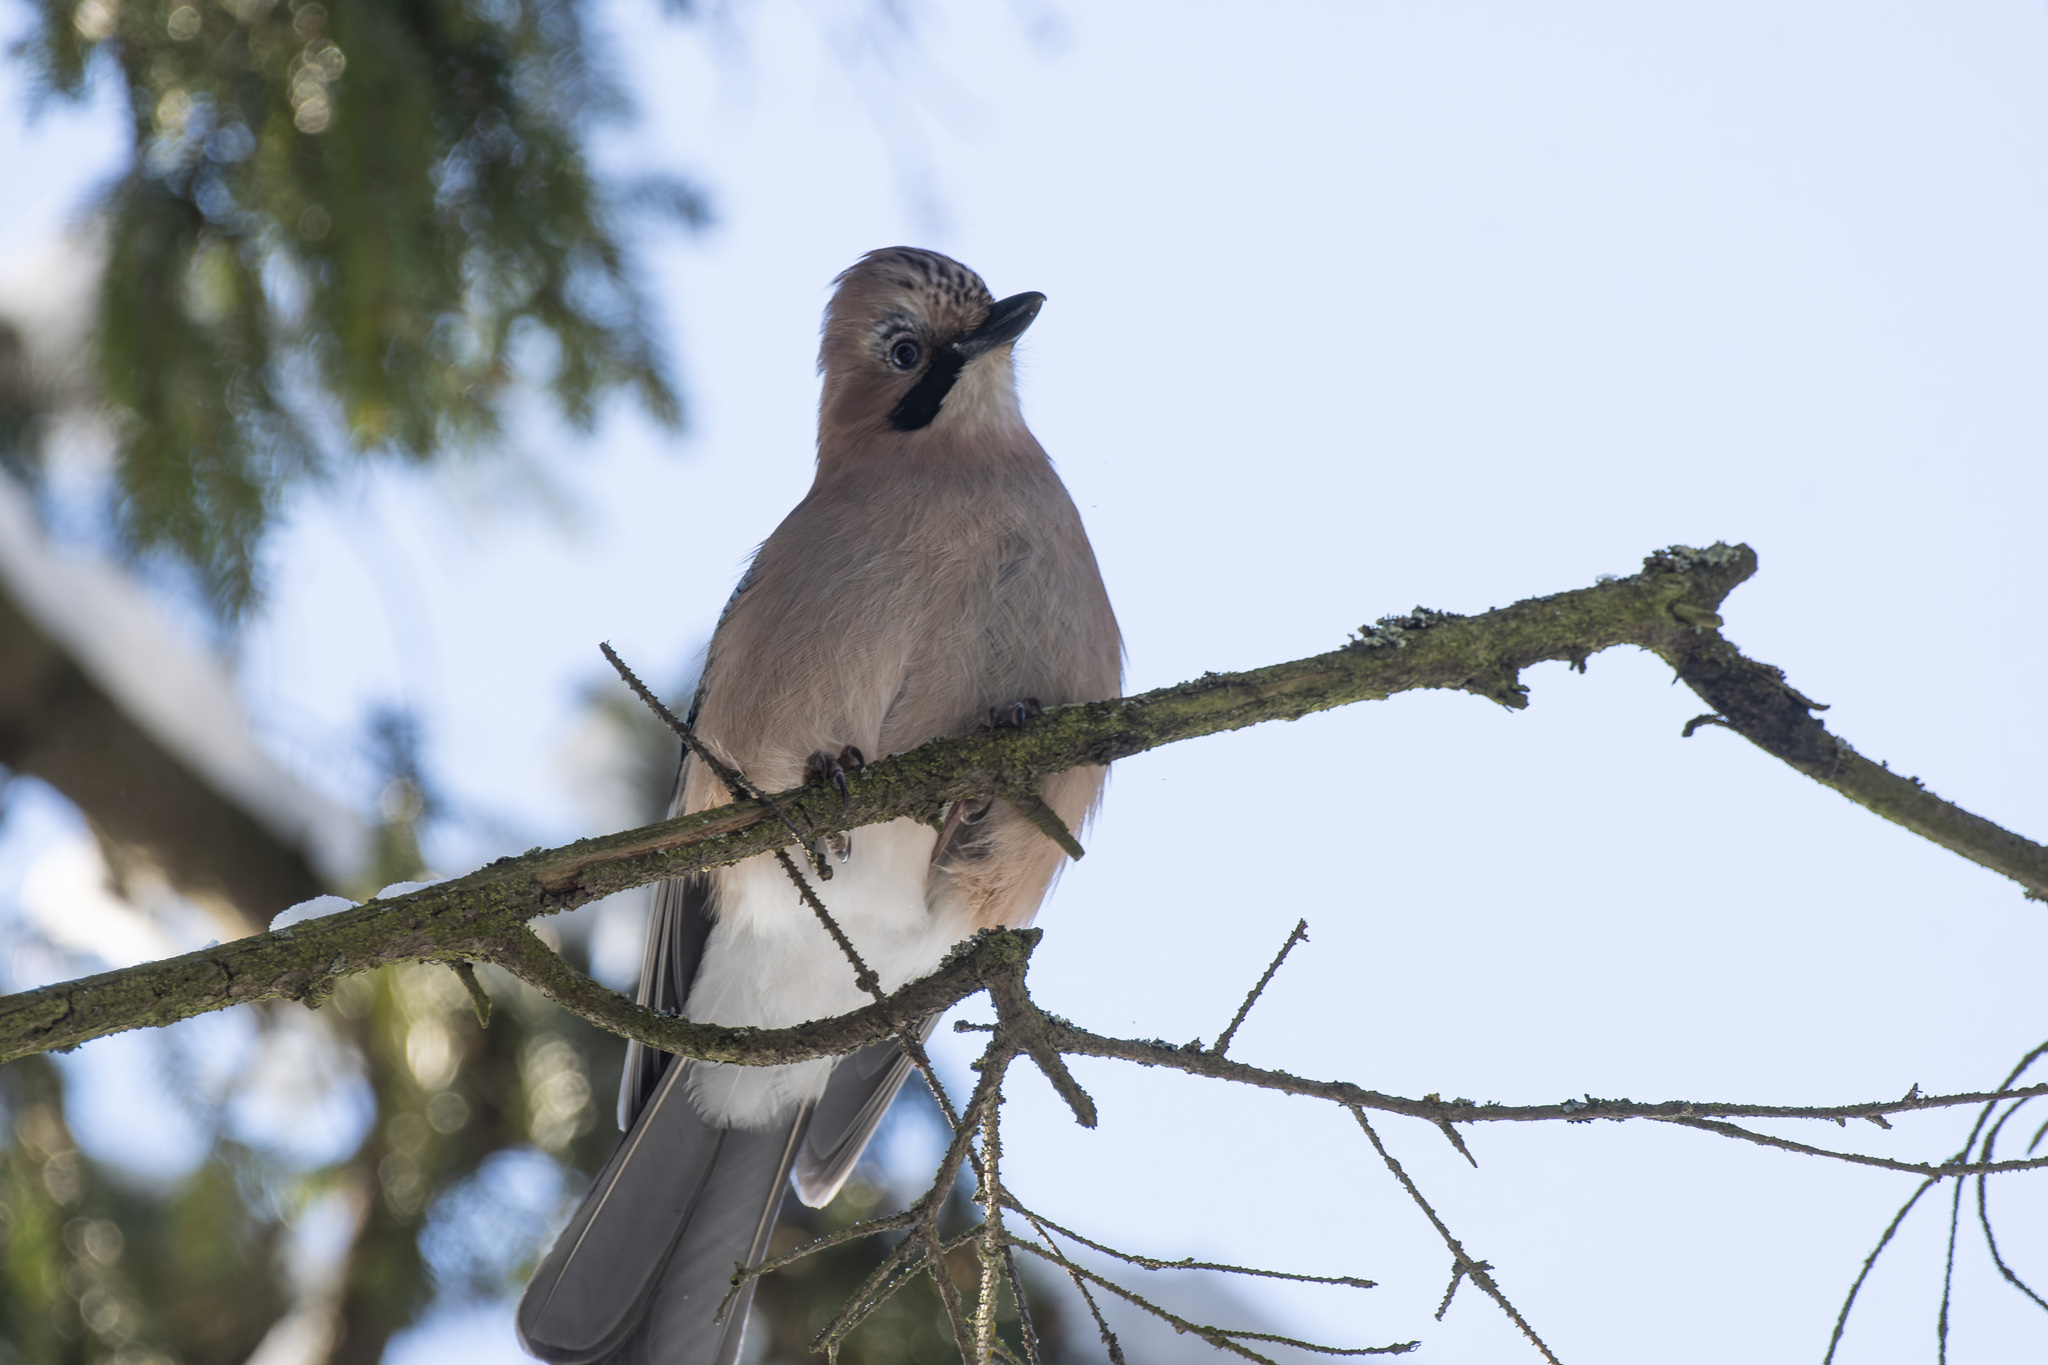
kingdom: Animalia
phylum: Chordata
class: Aves
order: Passeriformes
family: Corvidae
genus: Garrulus
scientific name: Garrulus glandarius
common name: Eurasian jay
